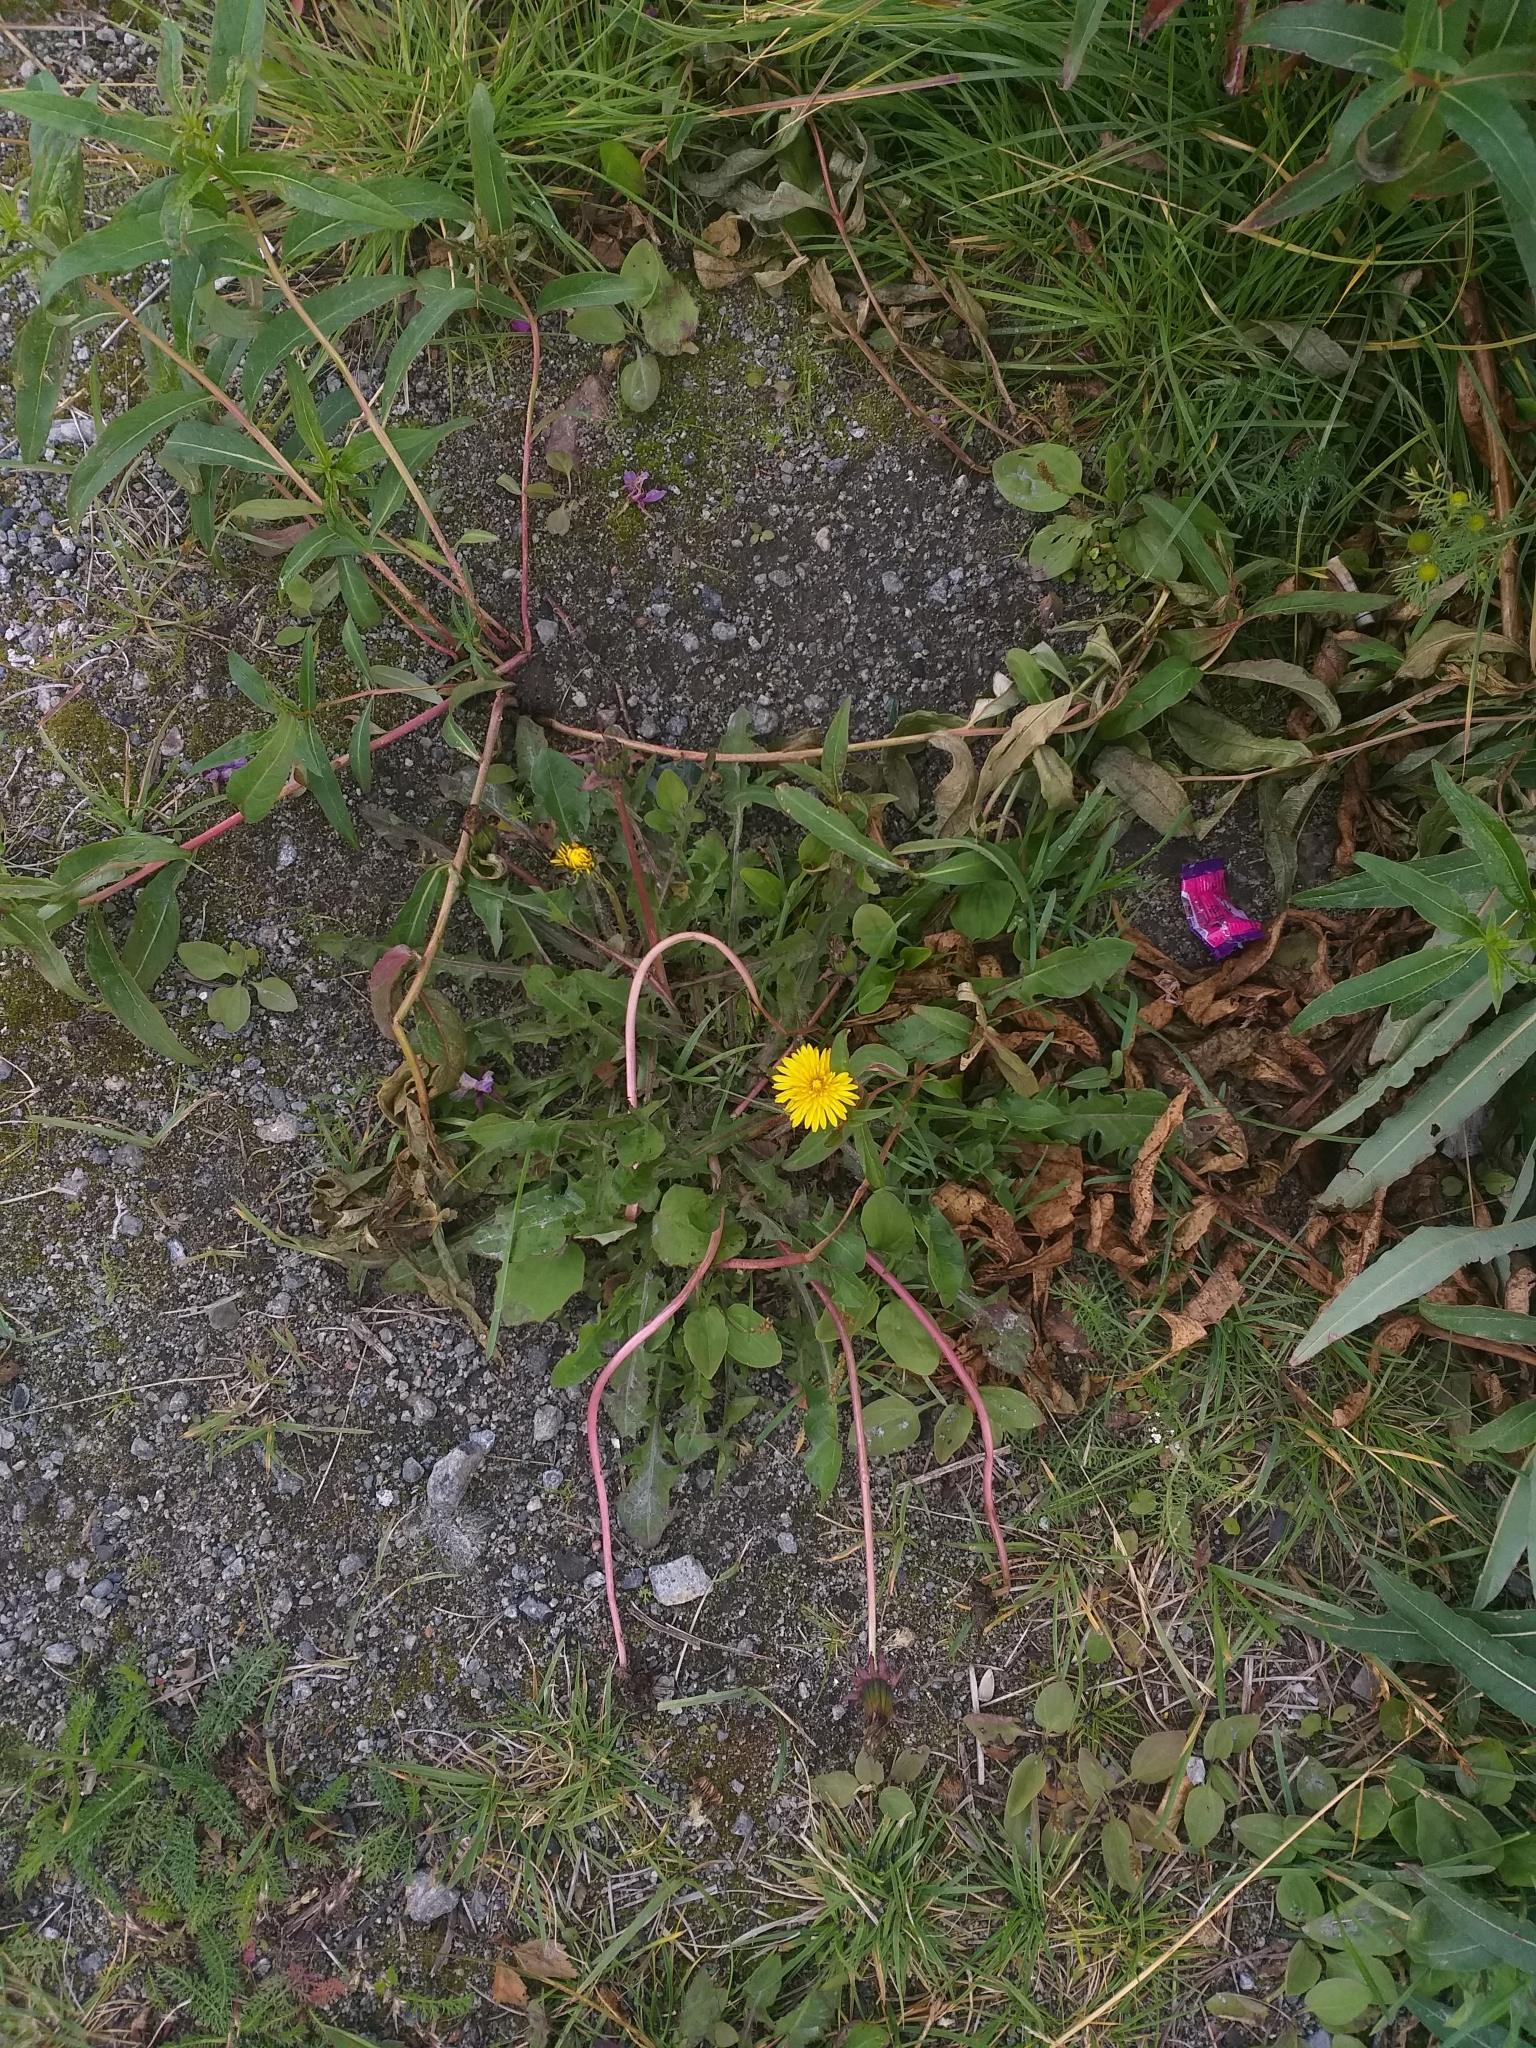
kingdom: Plantae
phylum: Tracheophyta
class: Magnoliopsida
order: Asterales
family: Asteraceae
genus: Taraxacum
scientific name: Taraxacum officinale
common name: Common dandelion
